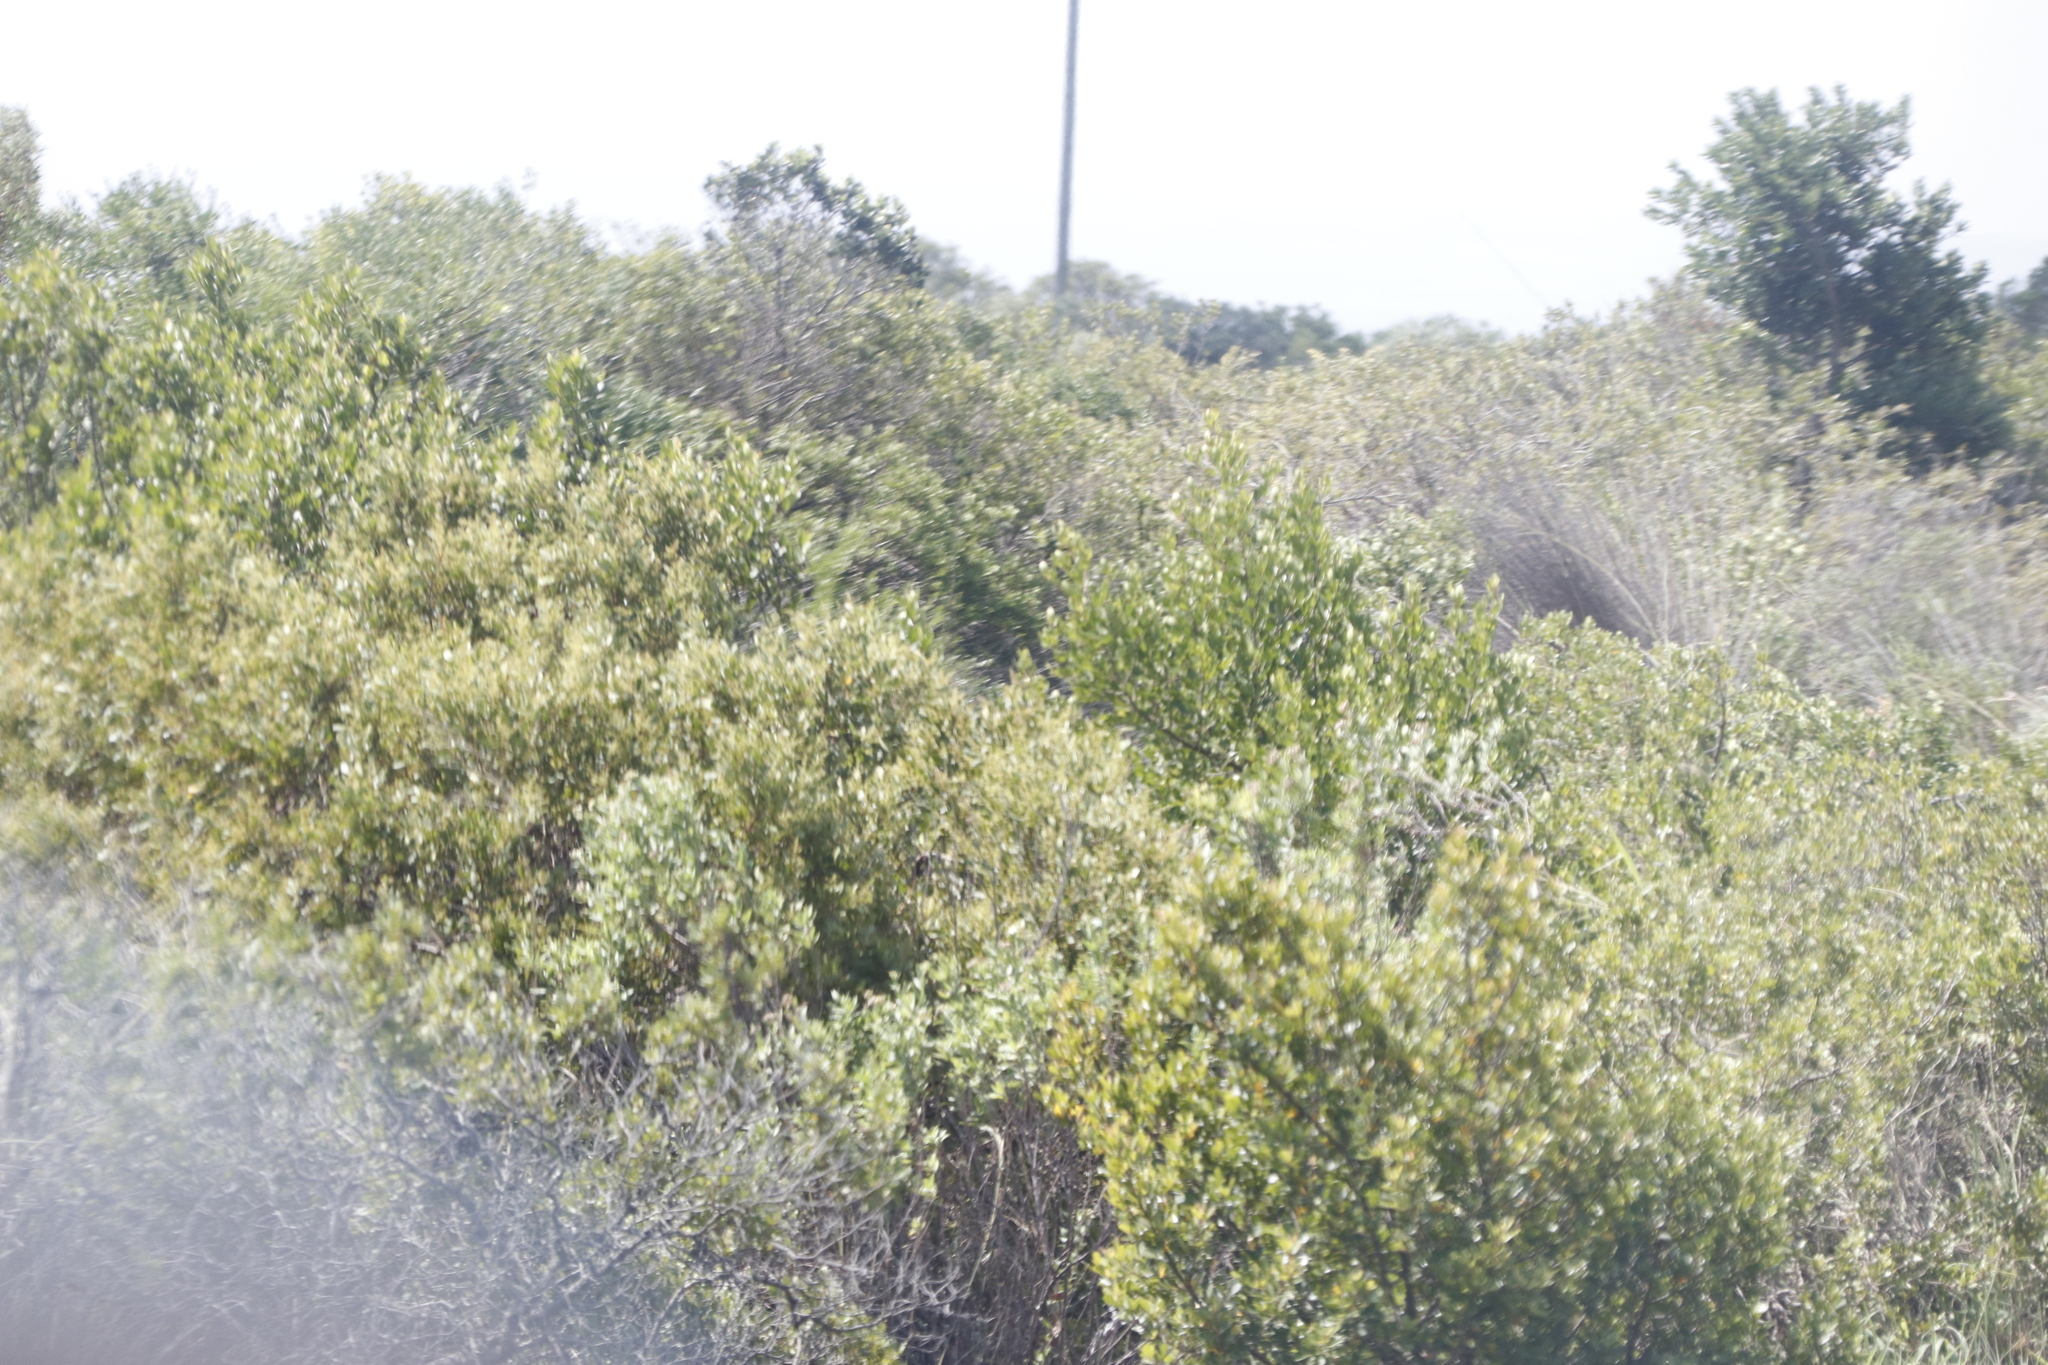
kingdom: Plantae
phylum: Tracheophyta
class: Magnoliopsida
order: Asterales
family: Asteraceae
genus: Osteospermum
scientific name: Osteospermum moniliferum
